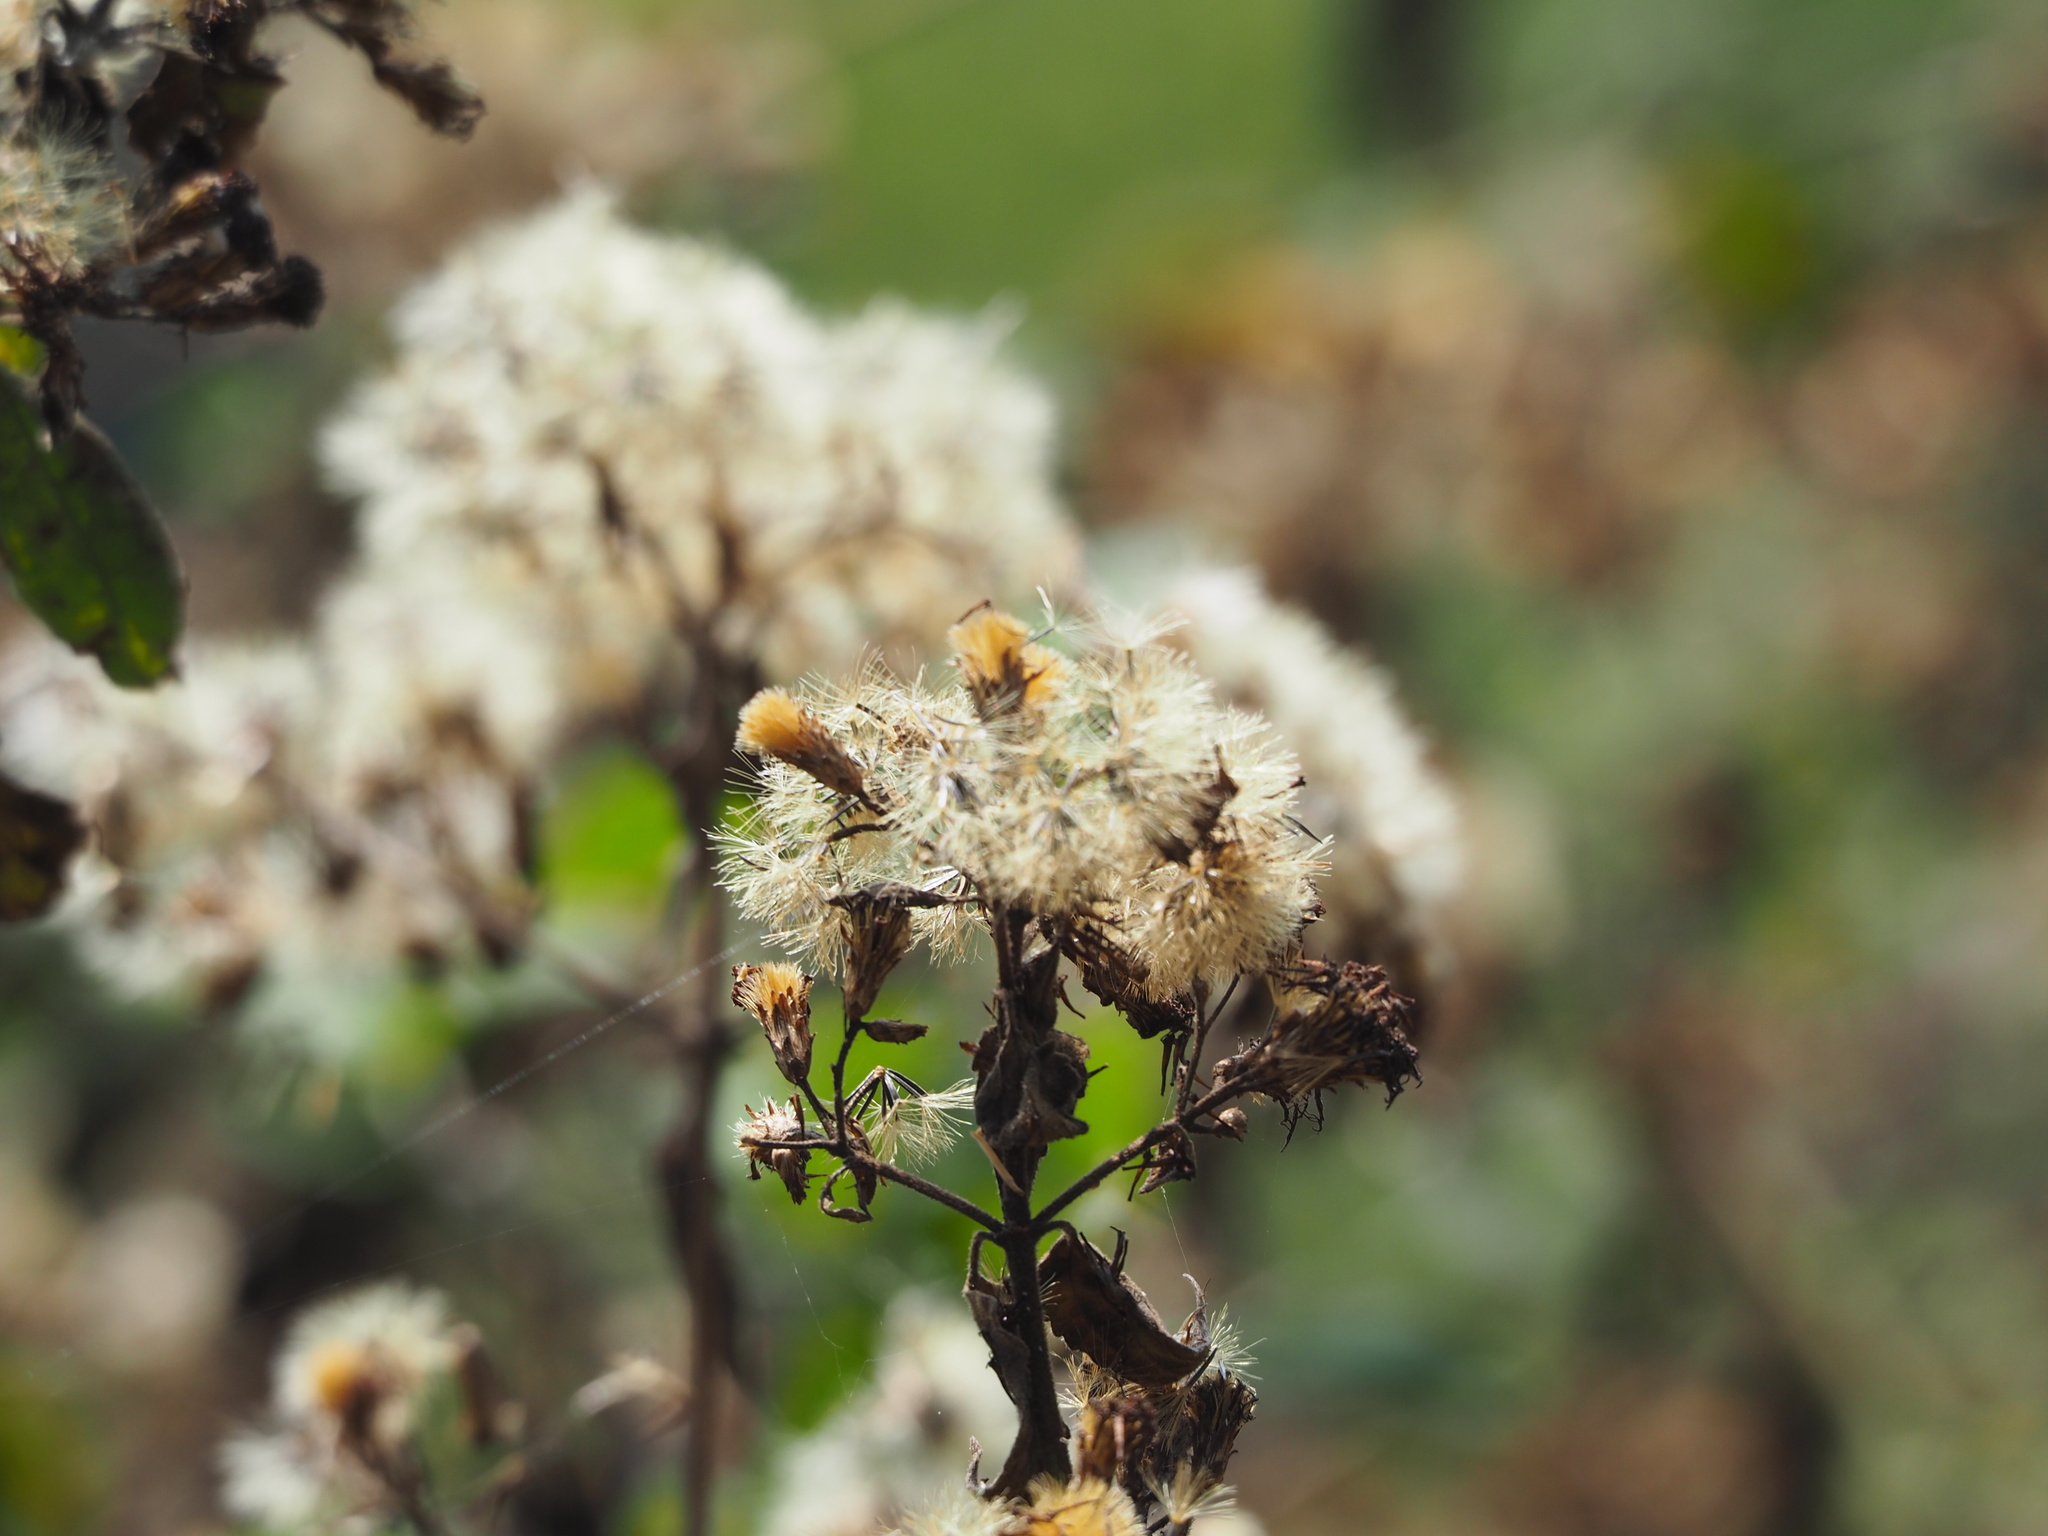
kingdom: Plantae
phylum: Tracheophyta
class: Magnoliopsida
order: Asterales
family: Asteraceae
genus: Chromolaena
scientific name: Chromolaena odorata
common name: Siamweed
